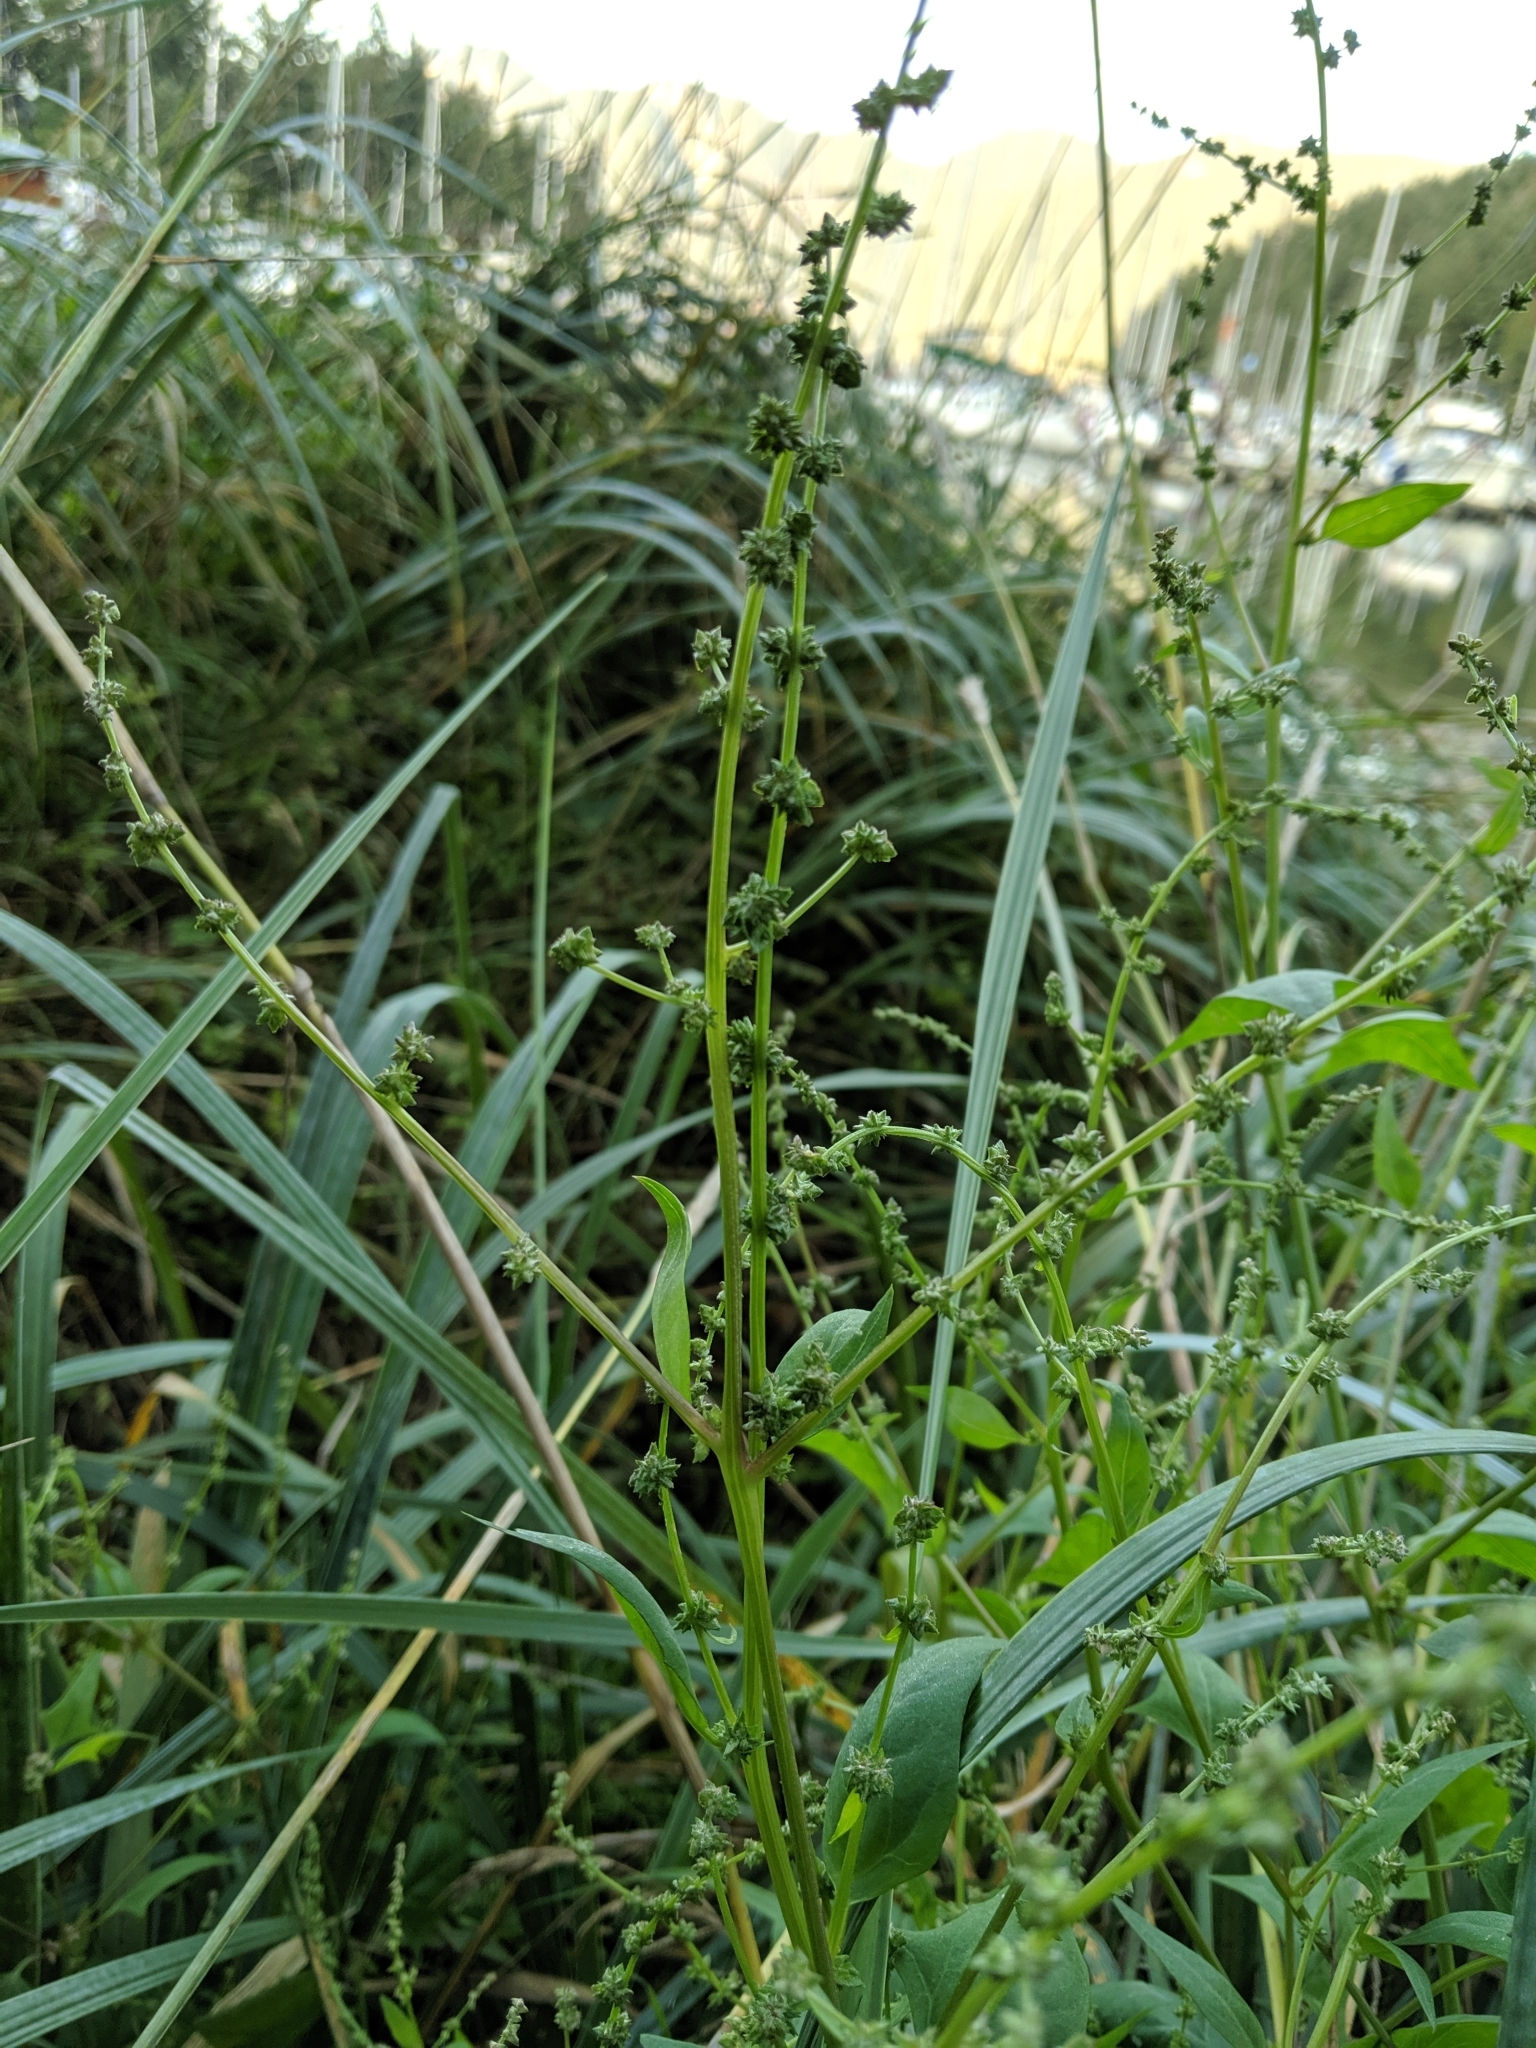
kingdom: Plantae
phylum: Tracheophyta
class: Magnoliopsida
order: Caryophyllales
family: Amaranthaceae
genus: Atriplex
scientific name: Atriplex prostrata
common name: Spear-leaved orache
